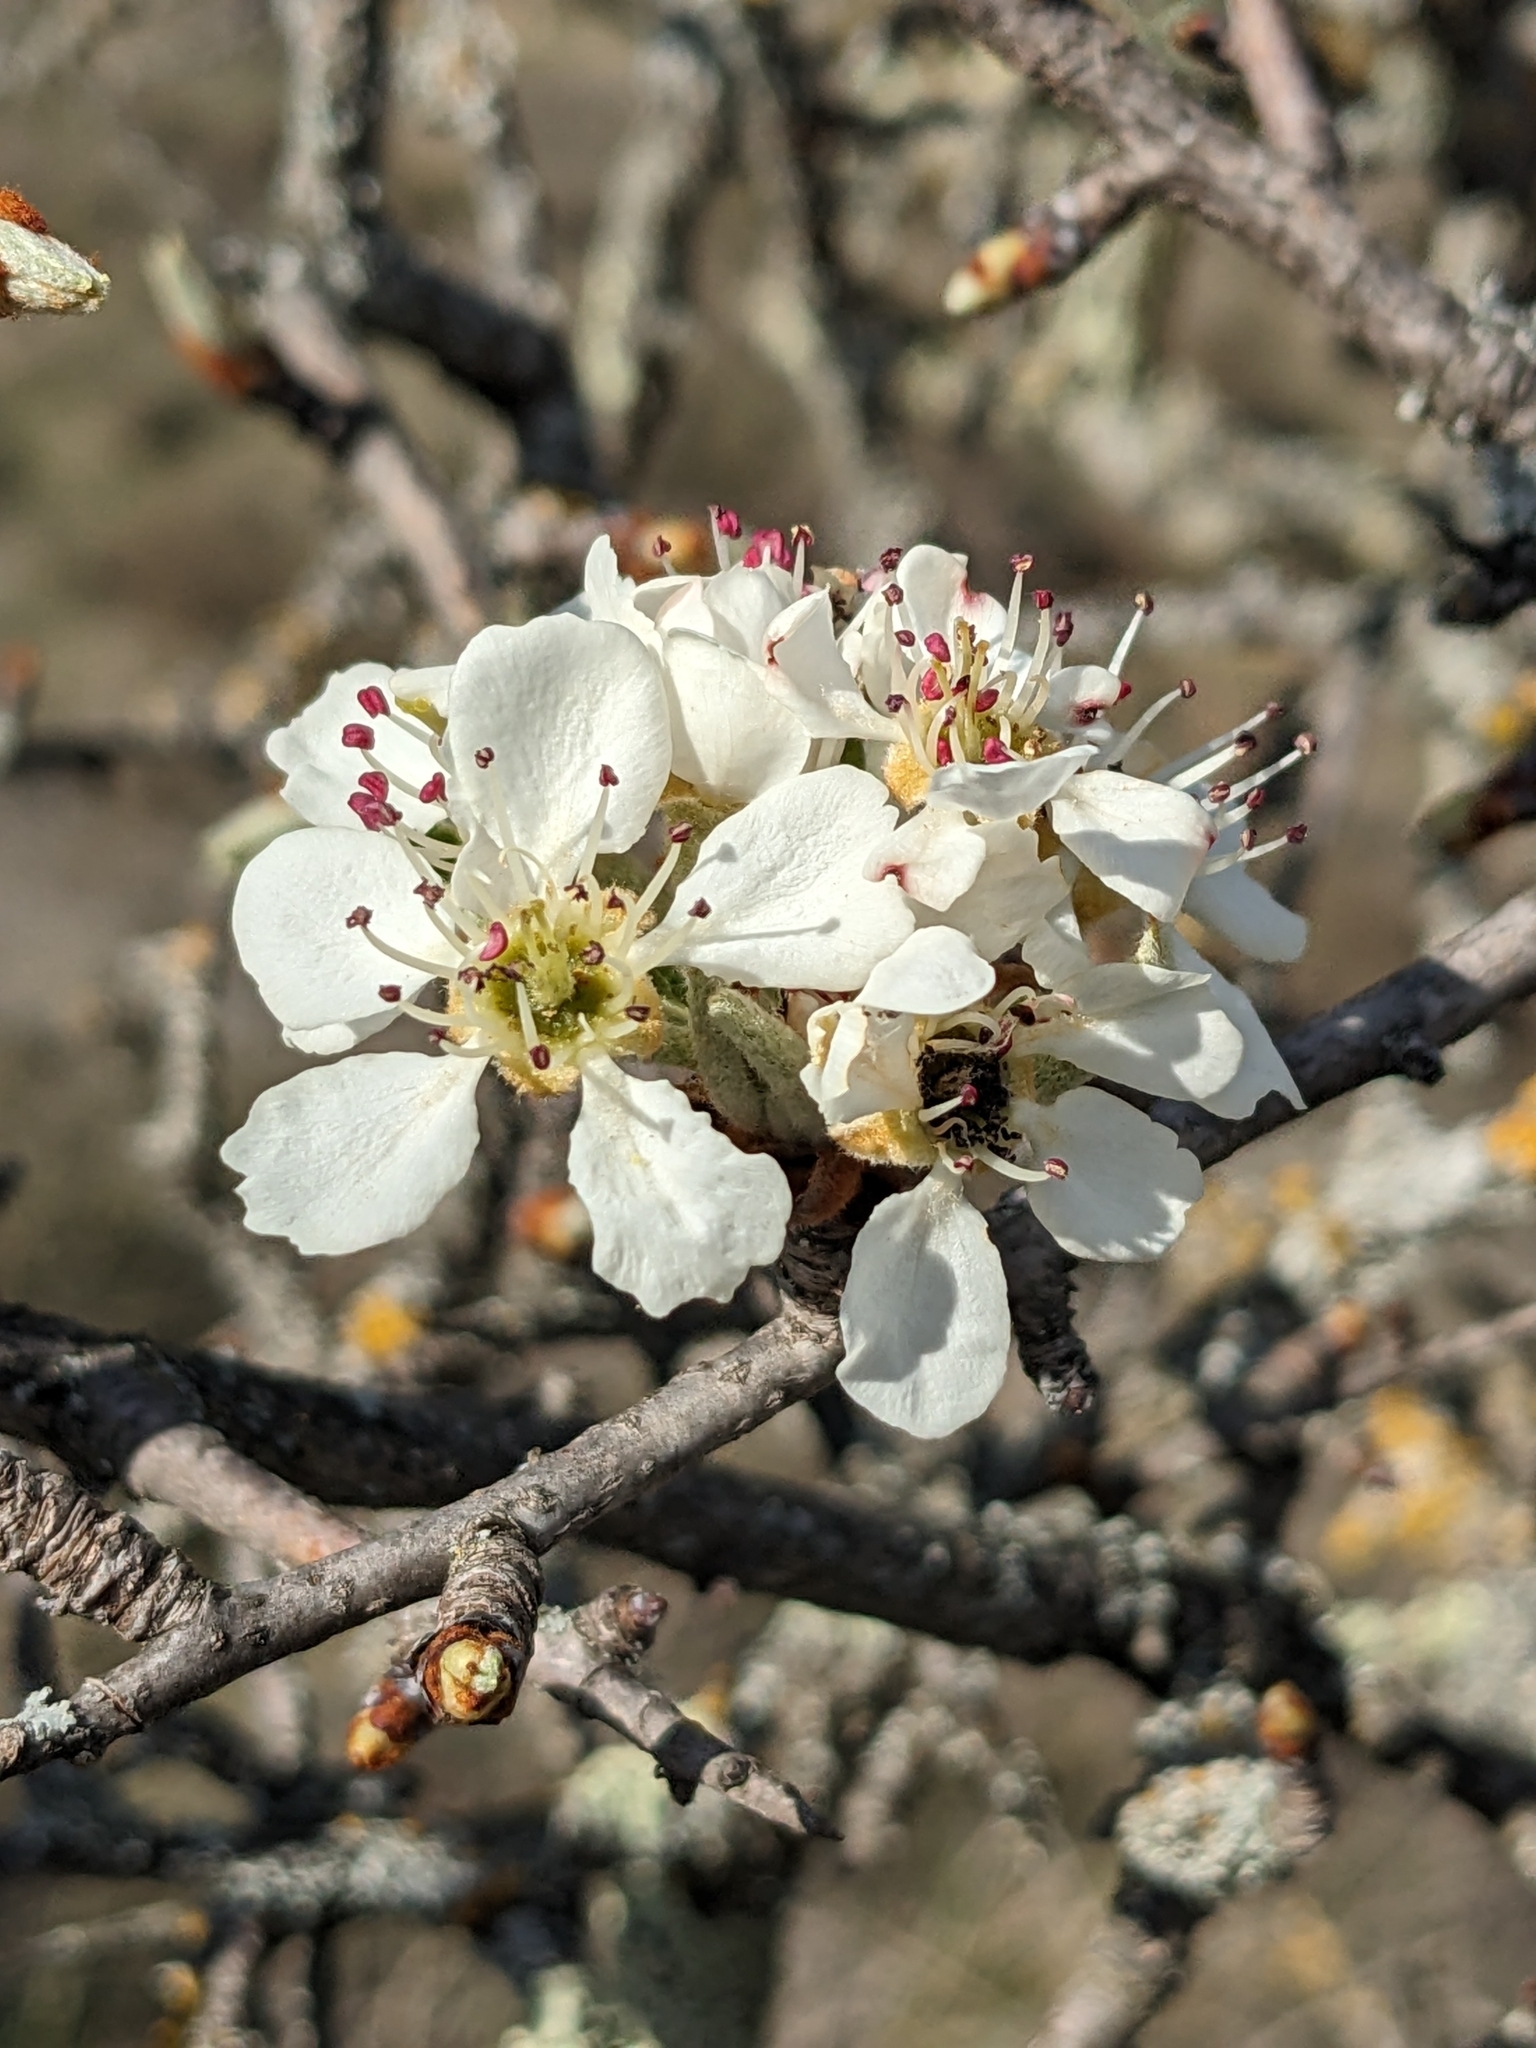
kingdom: Plantae
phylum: Tracheophyta
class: Magnoliopsida
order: Rosales
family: Rosaceae
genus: Pyrus
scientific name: Pyrus spinosa
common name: Almond-leaf pear
